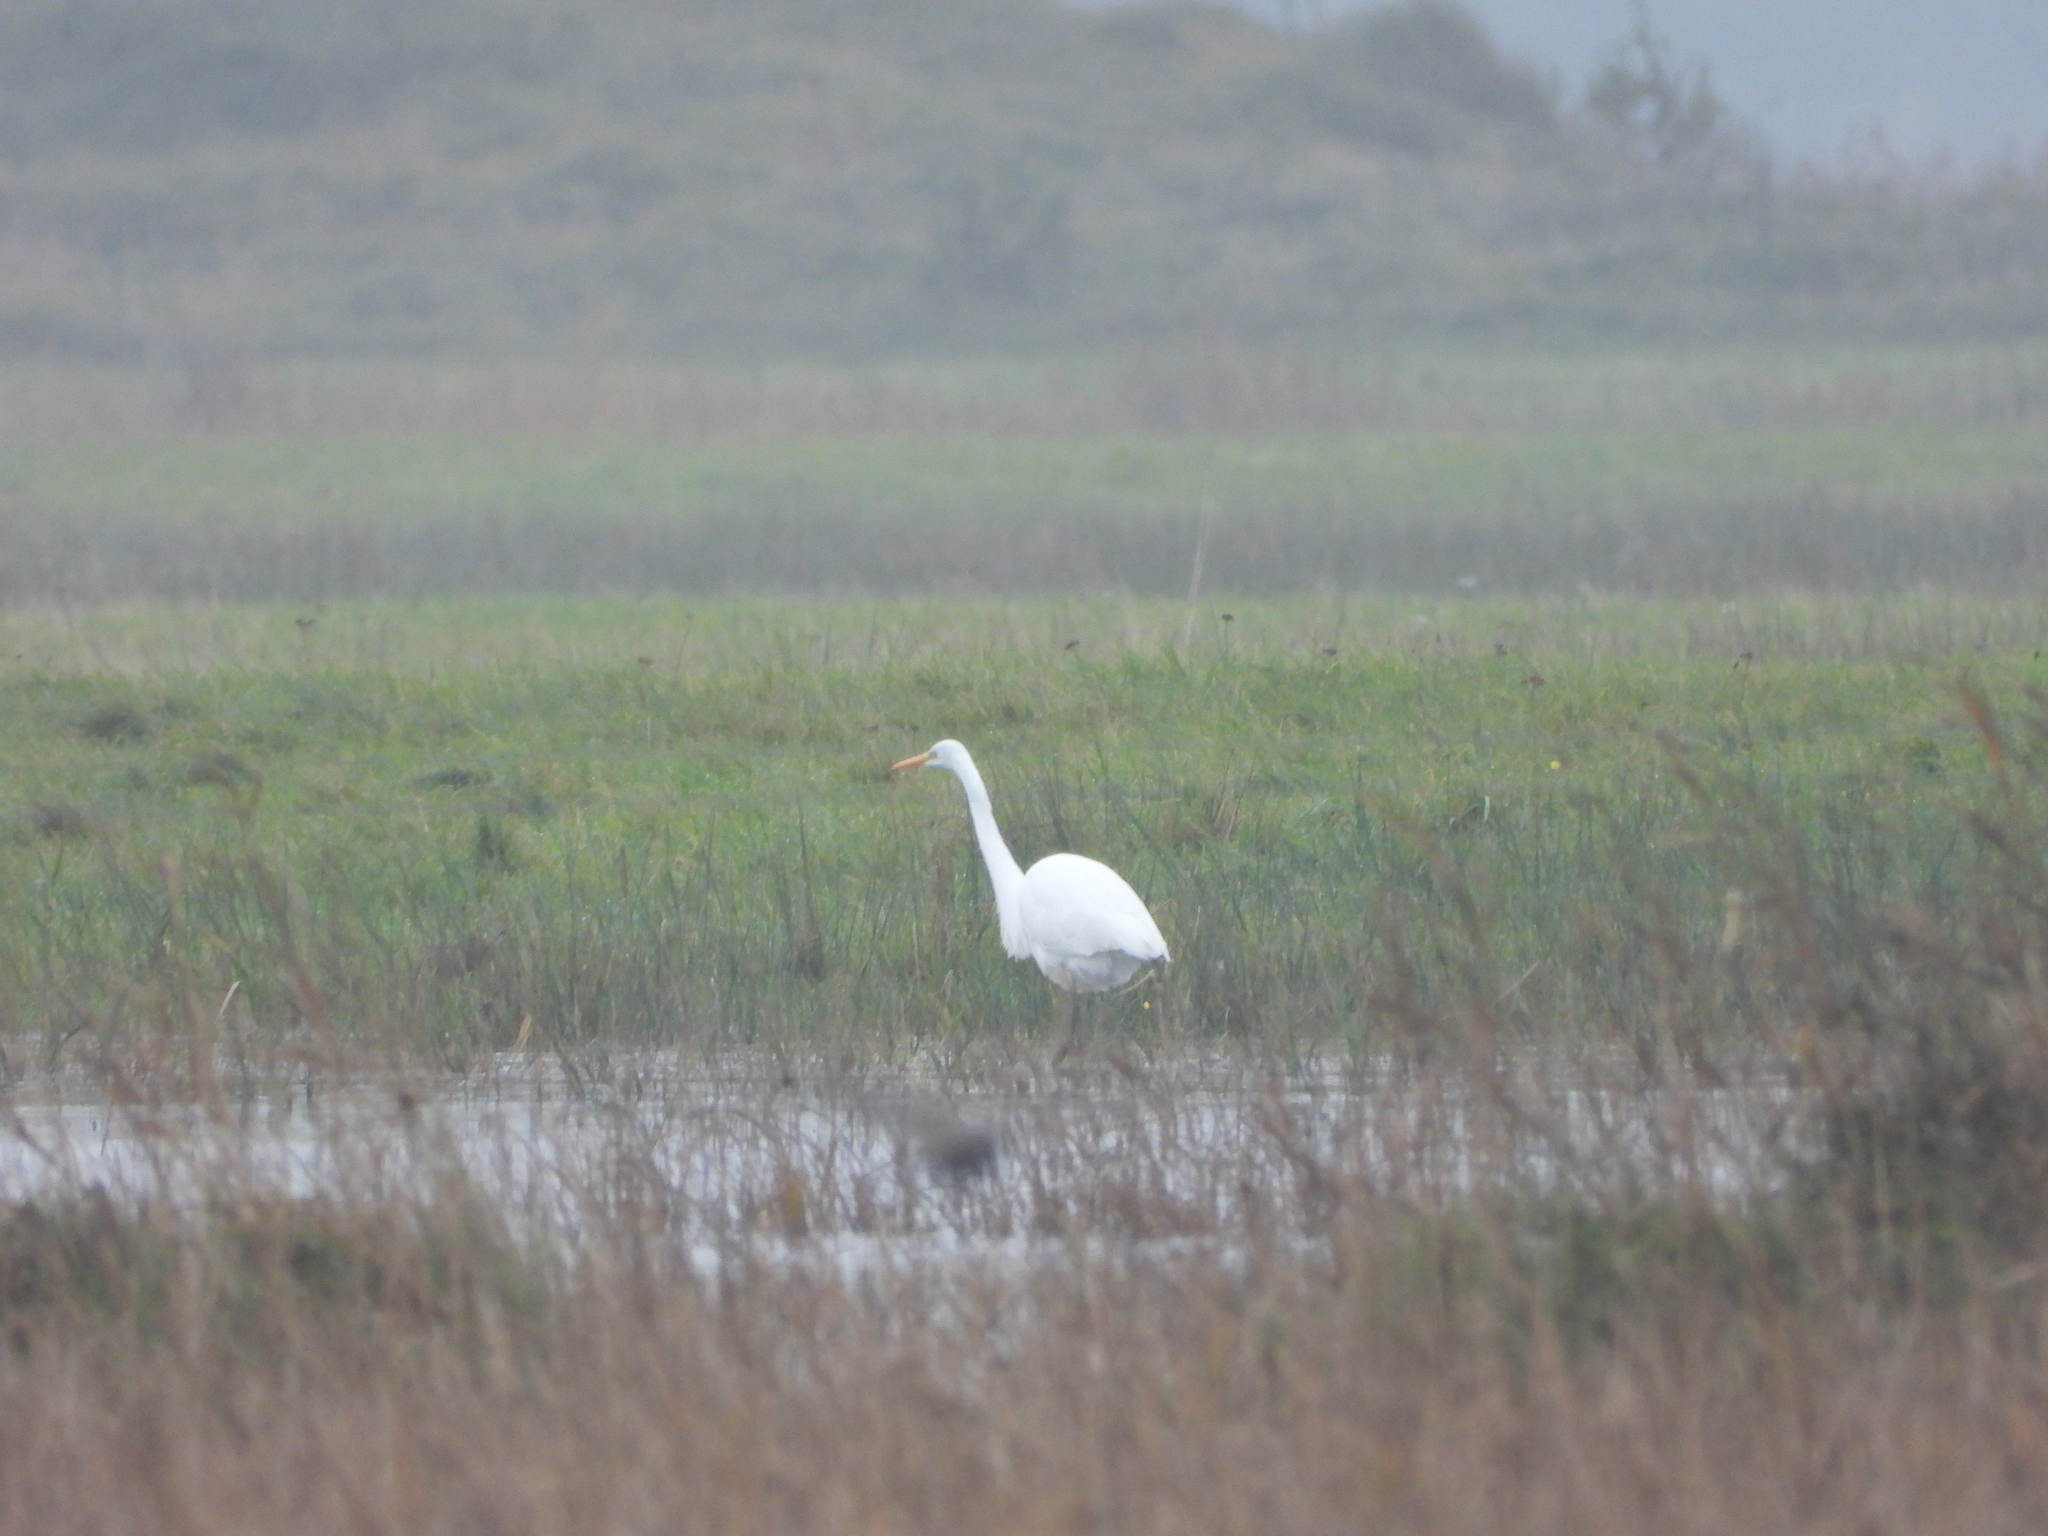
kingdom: Animalia
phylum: Chordata
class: Aves
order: Pelecaniformes
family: Ardeidae
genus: Ardea
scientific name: Ardea alba
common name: Great egret
